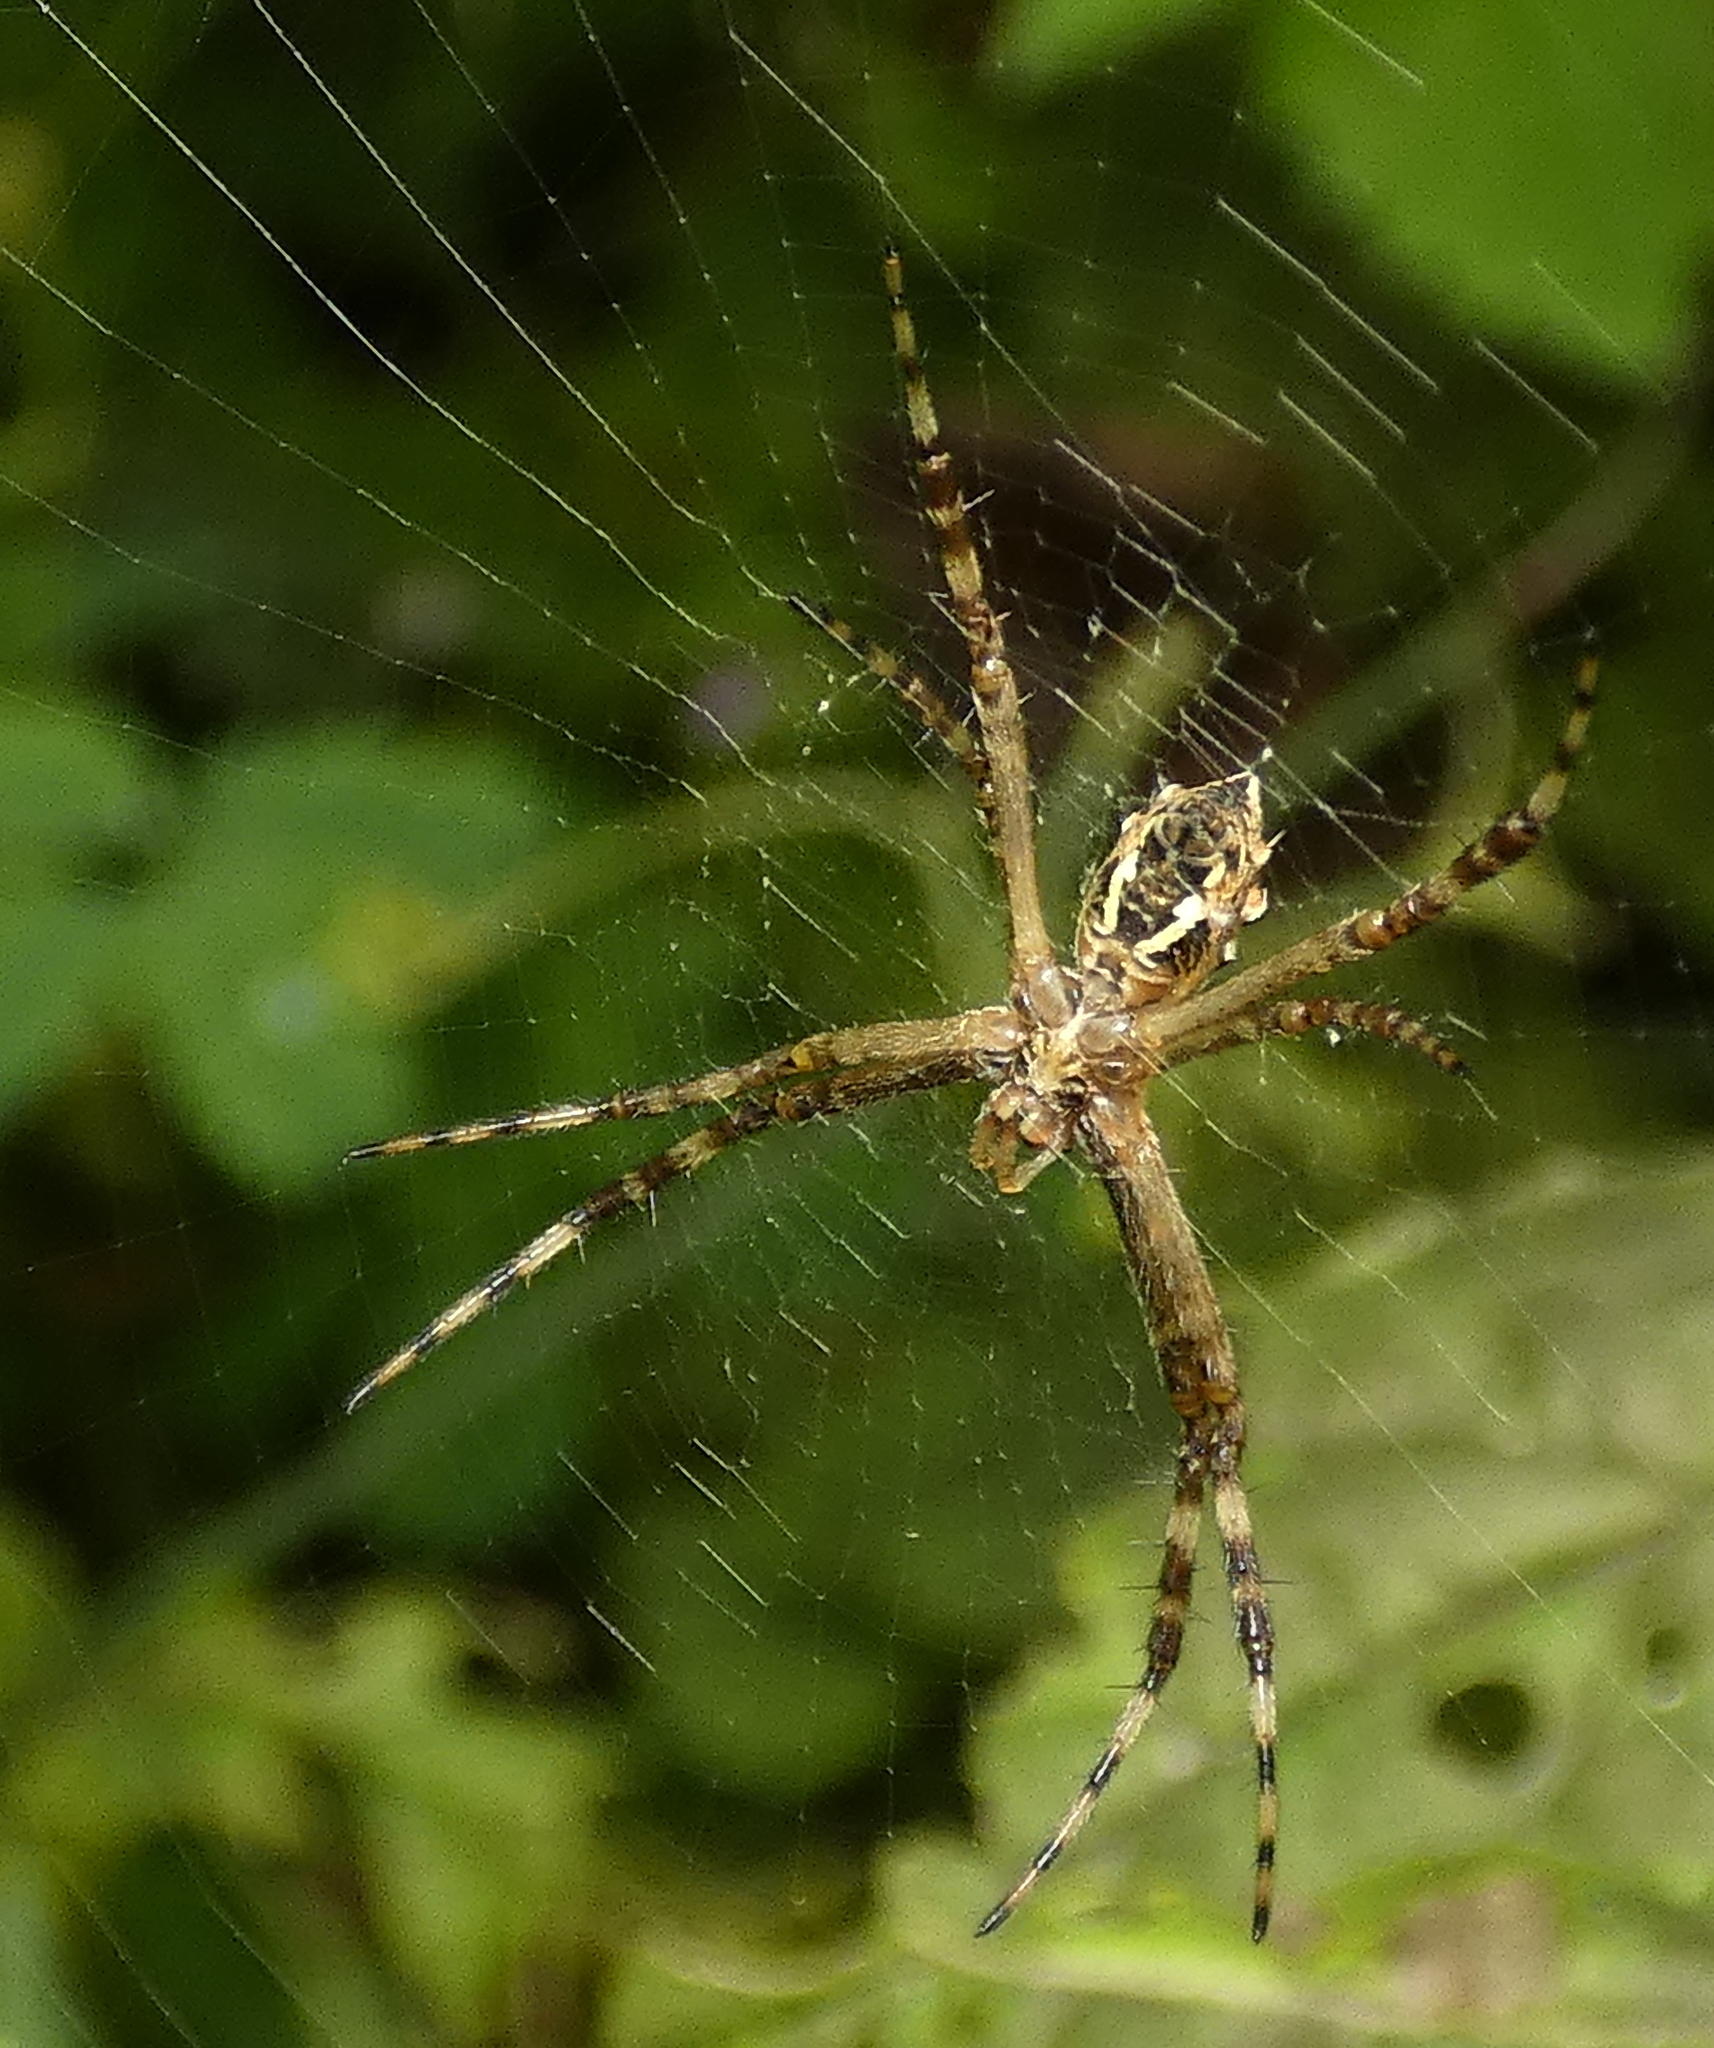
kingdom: Animalia
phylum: Arthropoda
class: Arachnida
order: Araneae
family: Araneidae
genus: Argiope
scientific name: Argiope argentata
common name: Orb weavers
